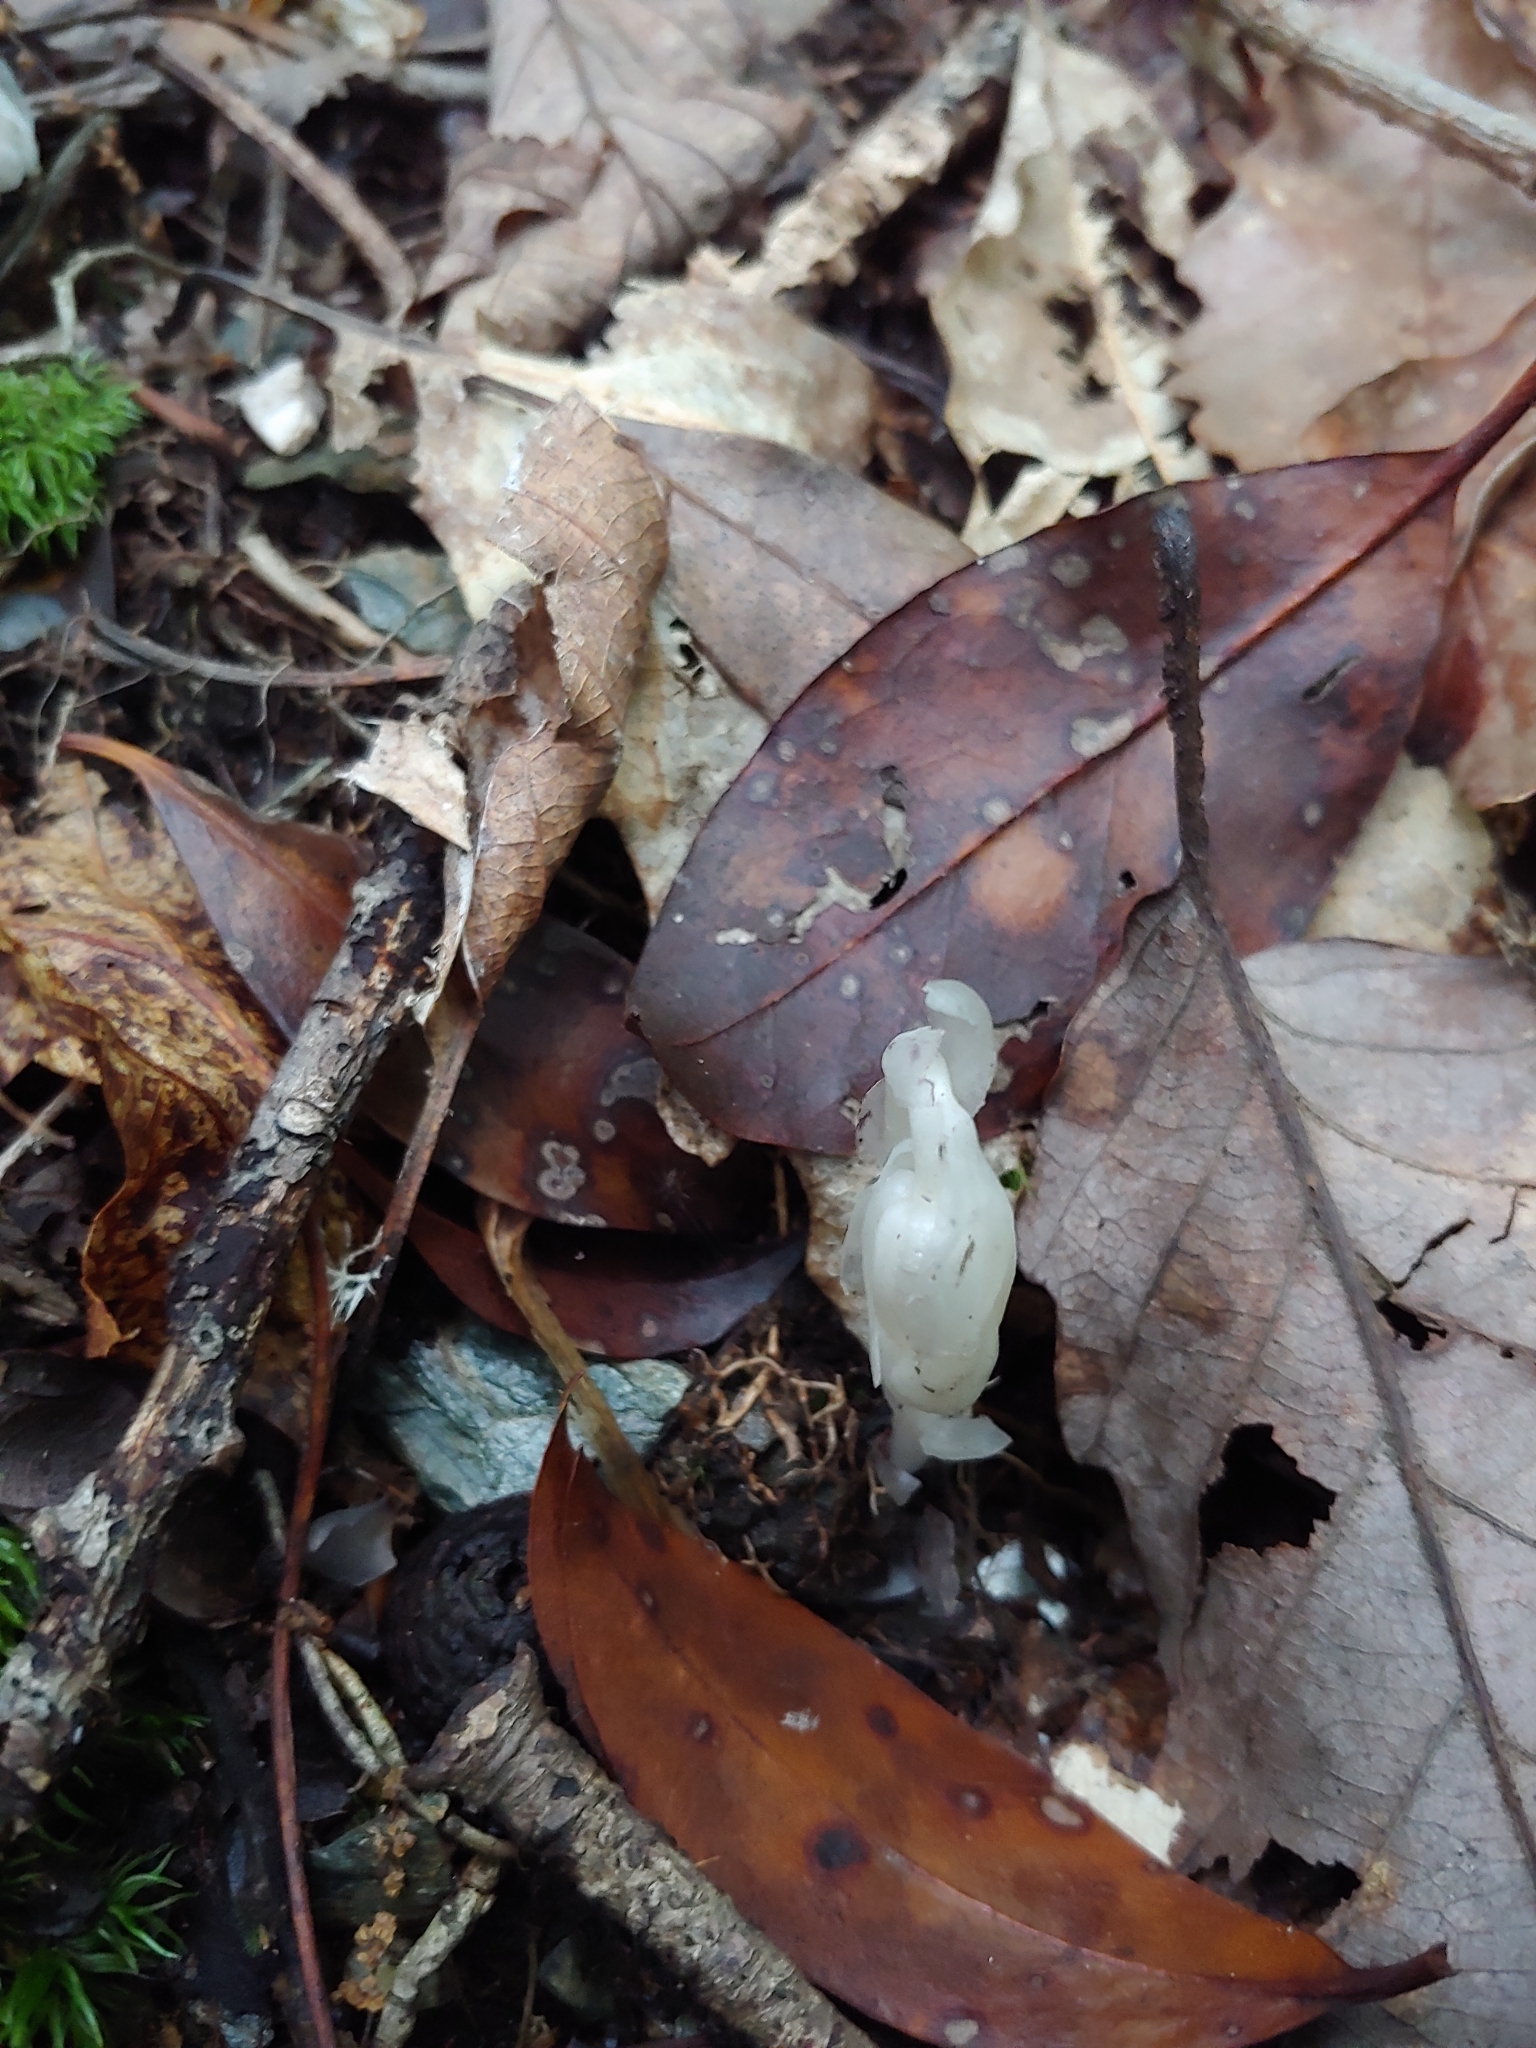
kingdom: Plantae
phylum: Tracheophyta
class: Magnoliopsida
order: Ericales
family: Ericaceae
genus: Monotropa
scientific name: Monotropa uniflora
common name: Convulsion root
